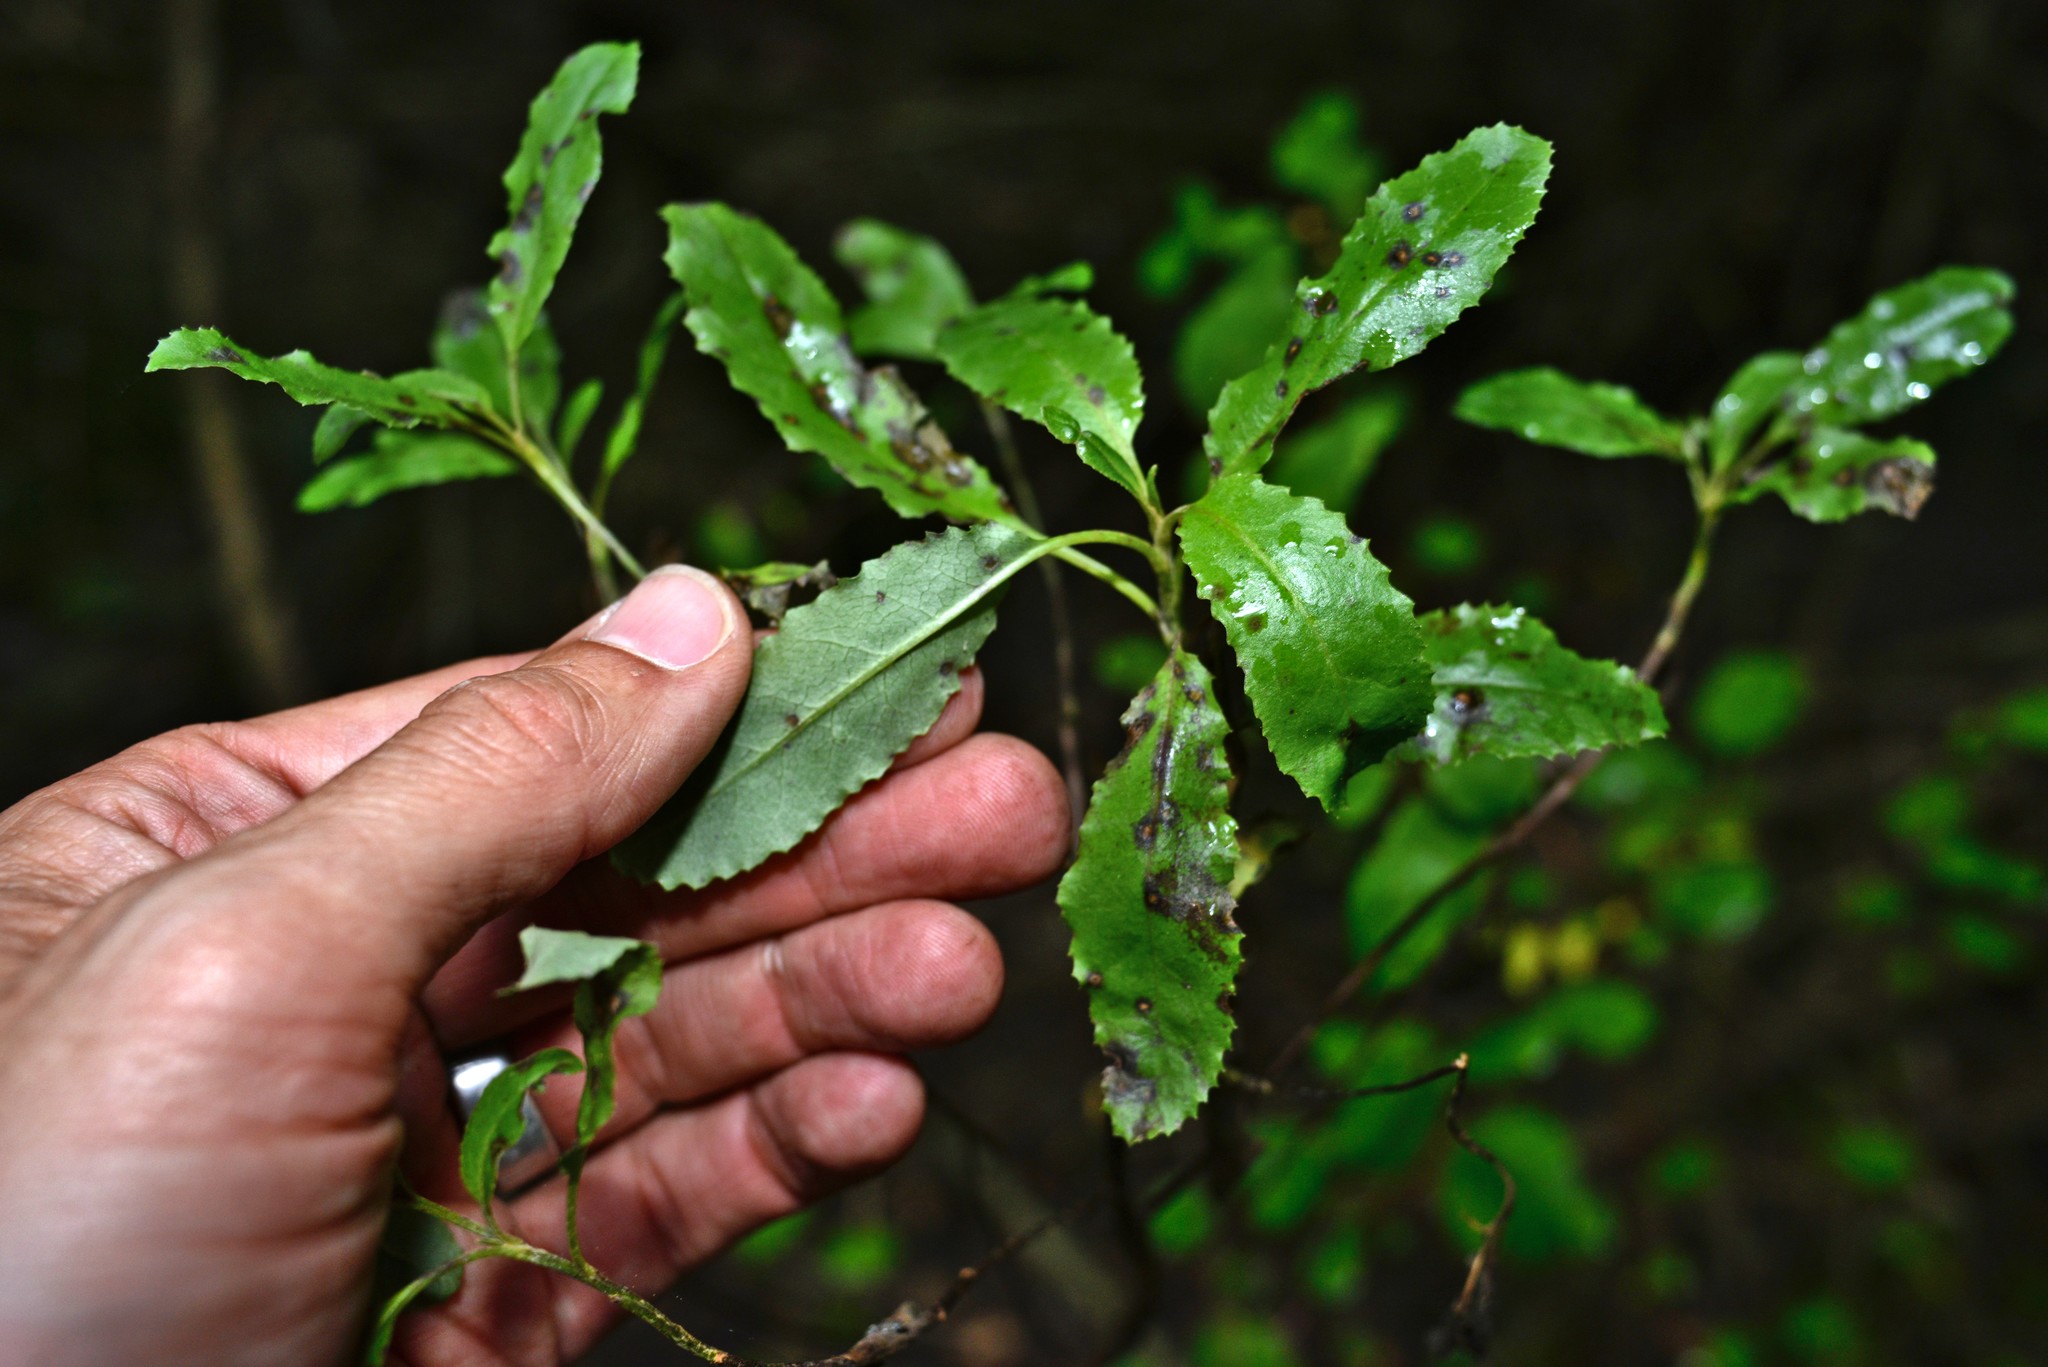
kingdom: Plantae
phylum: Tracheophyta
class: Magnoliopsida
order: Asterales
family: Asteraceae
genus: Brachyglottis
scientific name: Brachyglottis perdicioides
